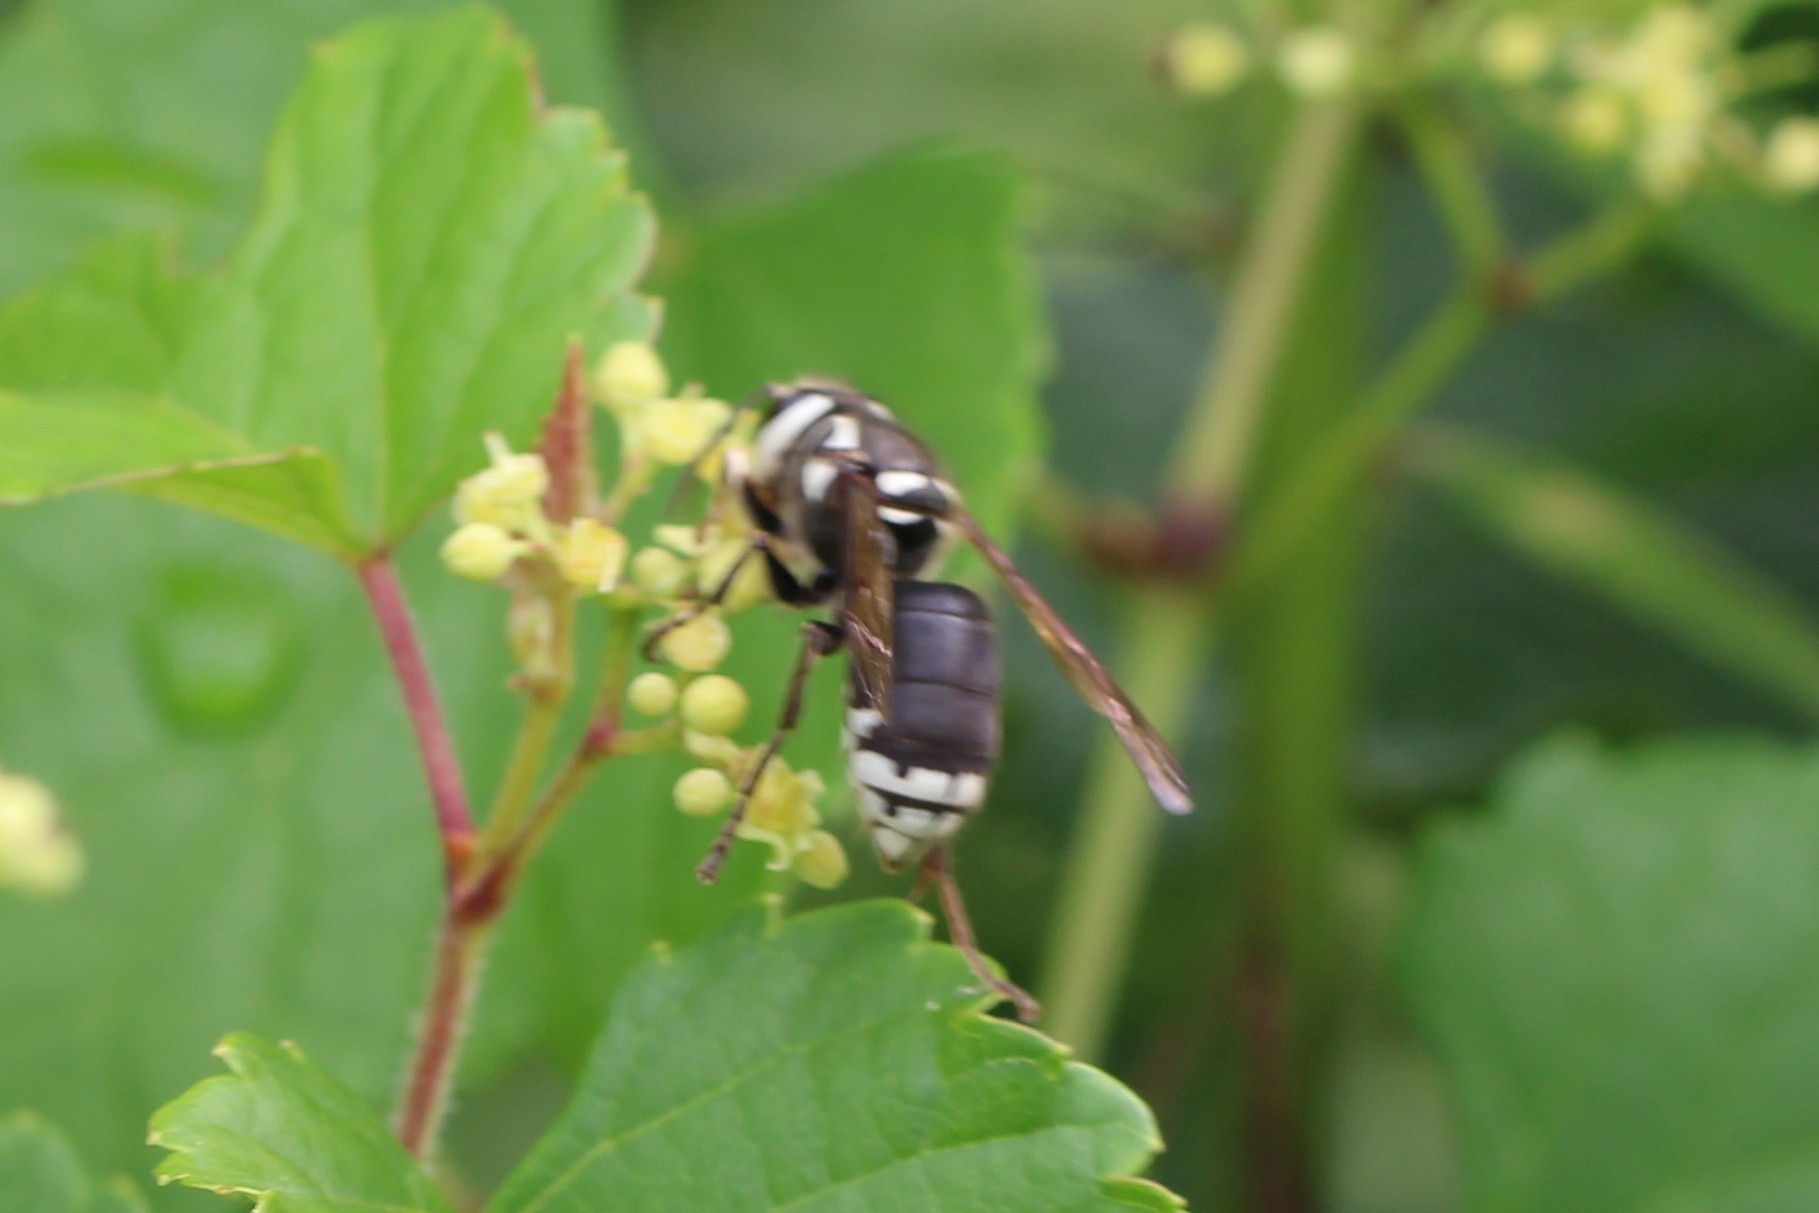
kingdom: Animalia
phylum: Arthropoda
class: Insecta
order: Hymenoptera
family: Vespidae
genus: Dolichovespula
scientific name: Dolichovespula maculata
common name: Bald-faced hornet
